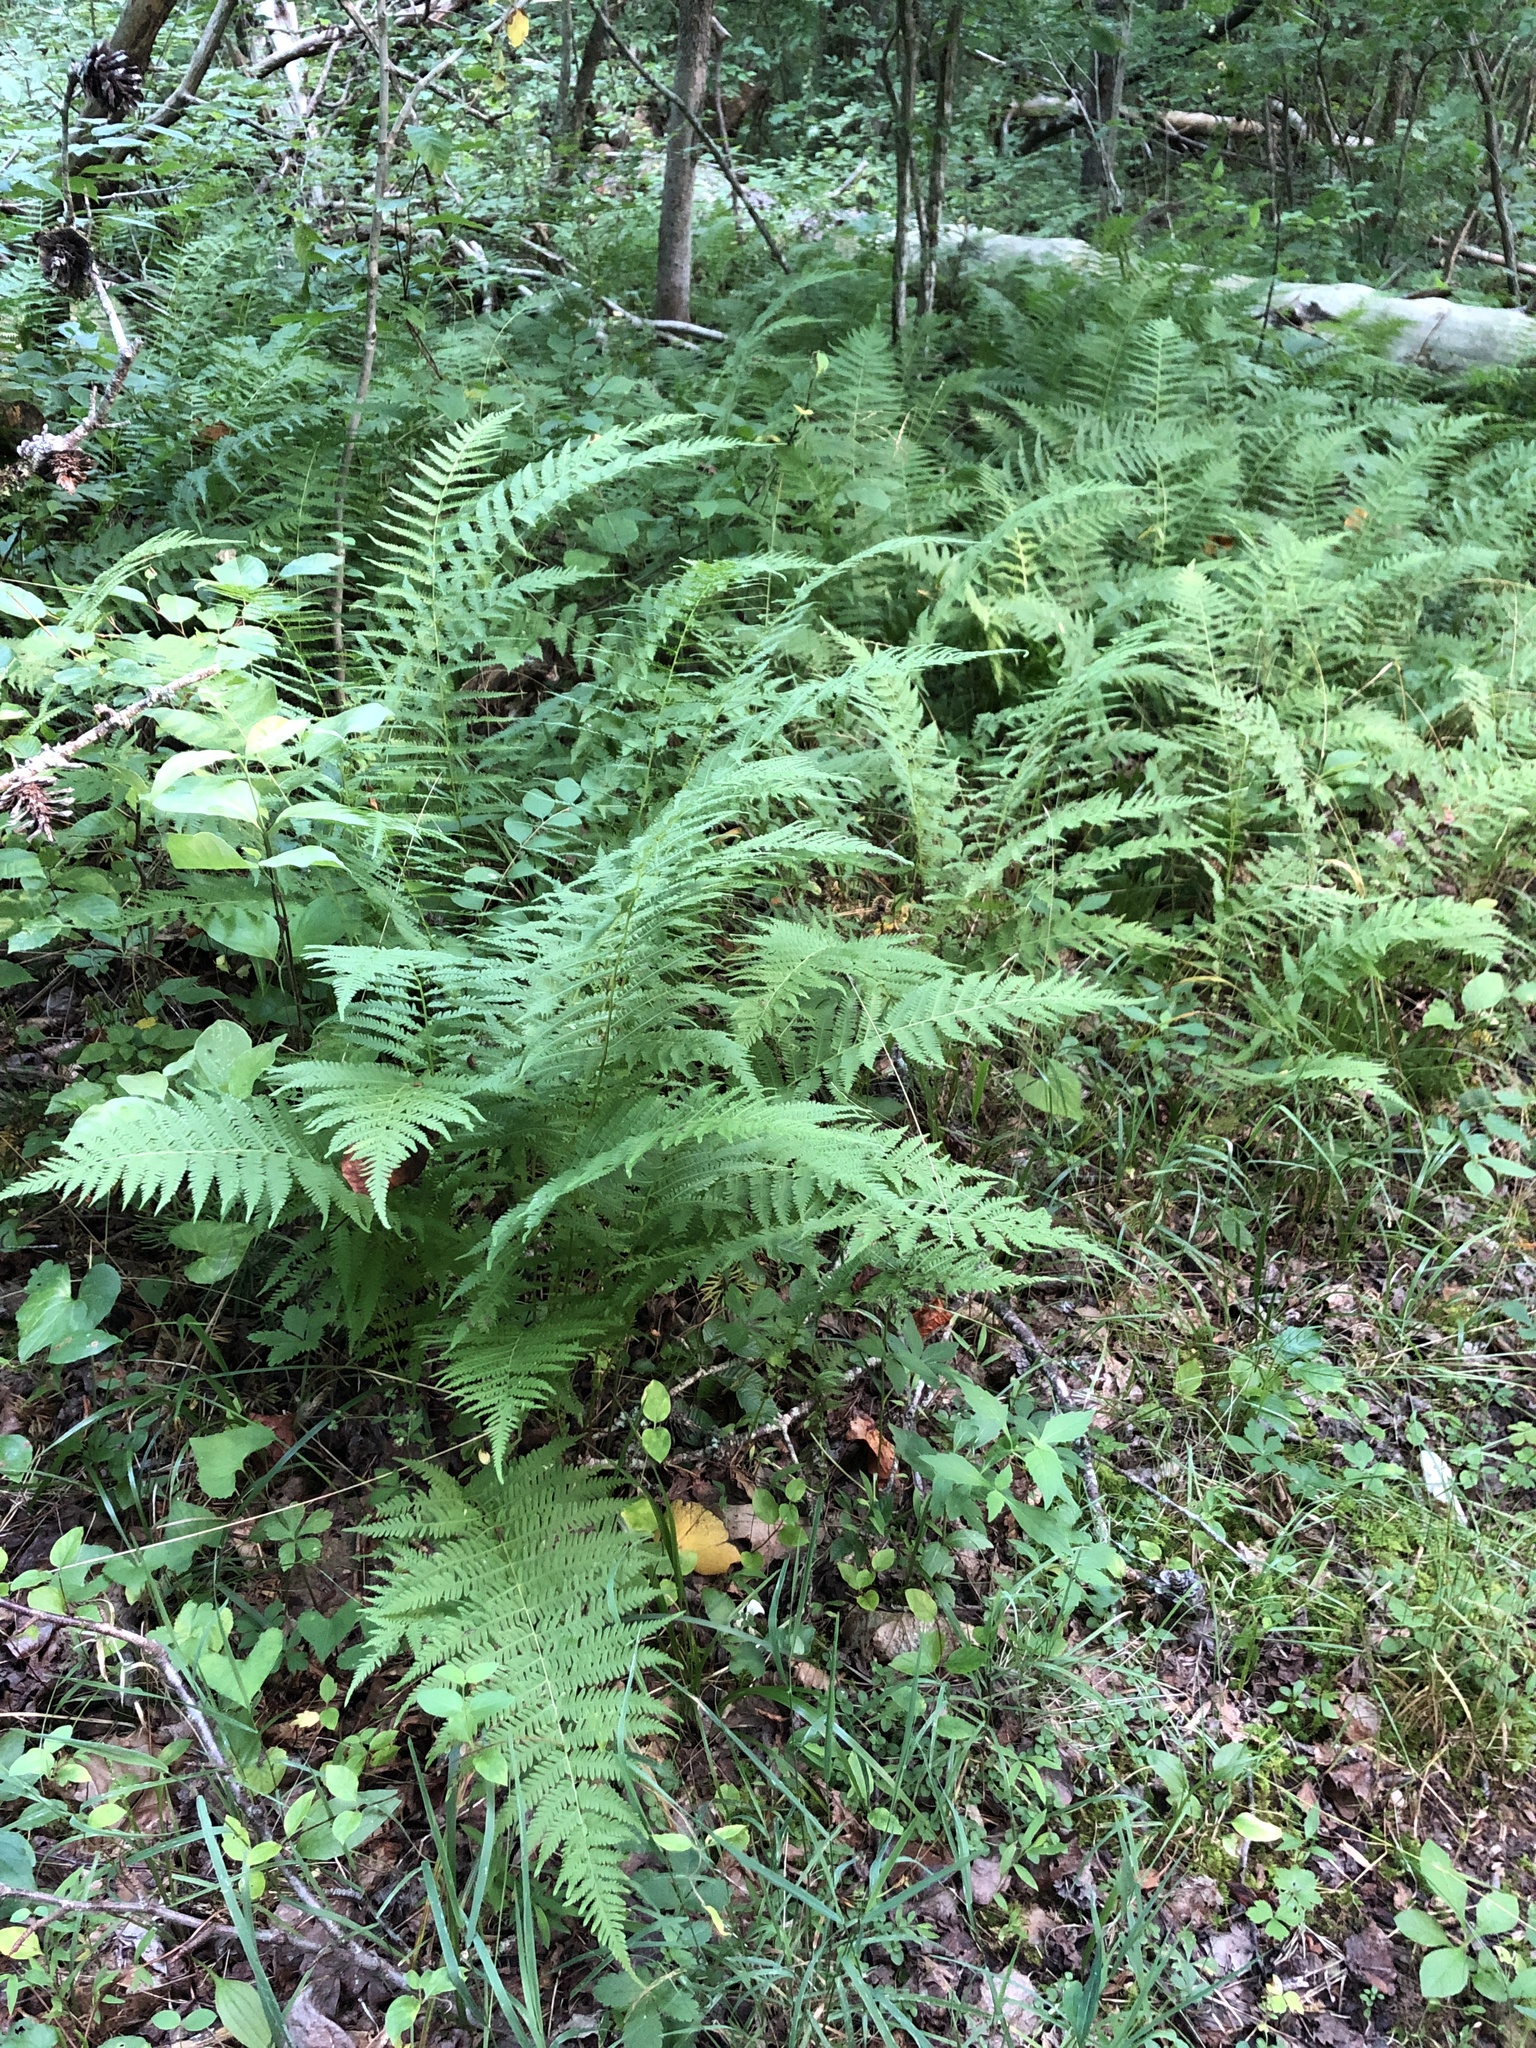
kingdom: Plantae
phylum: Tracheophyta
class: Polypodiopsida
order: Polypodiales
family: Thelypteridaceae
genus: Amauropelta
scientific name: Amauropelta noveboracensis
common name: New york fern
